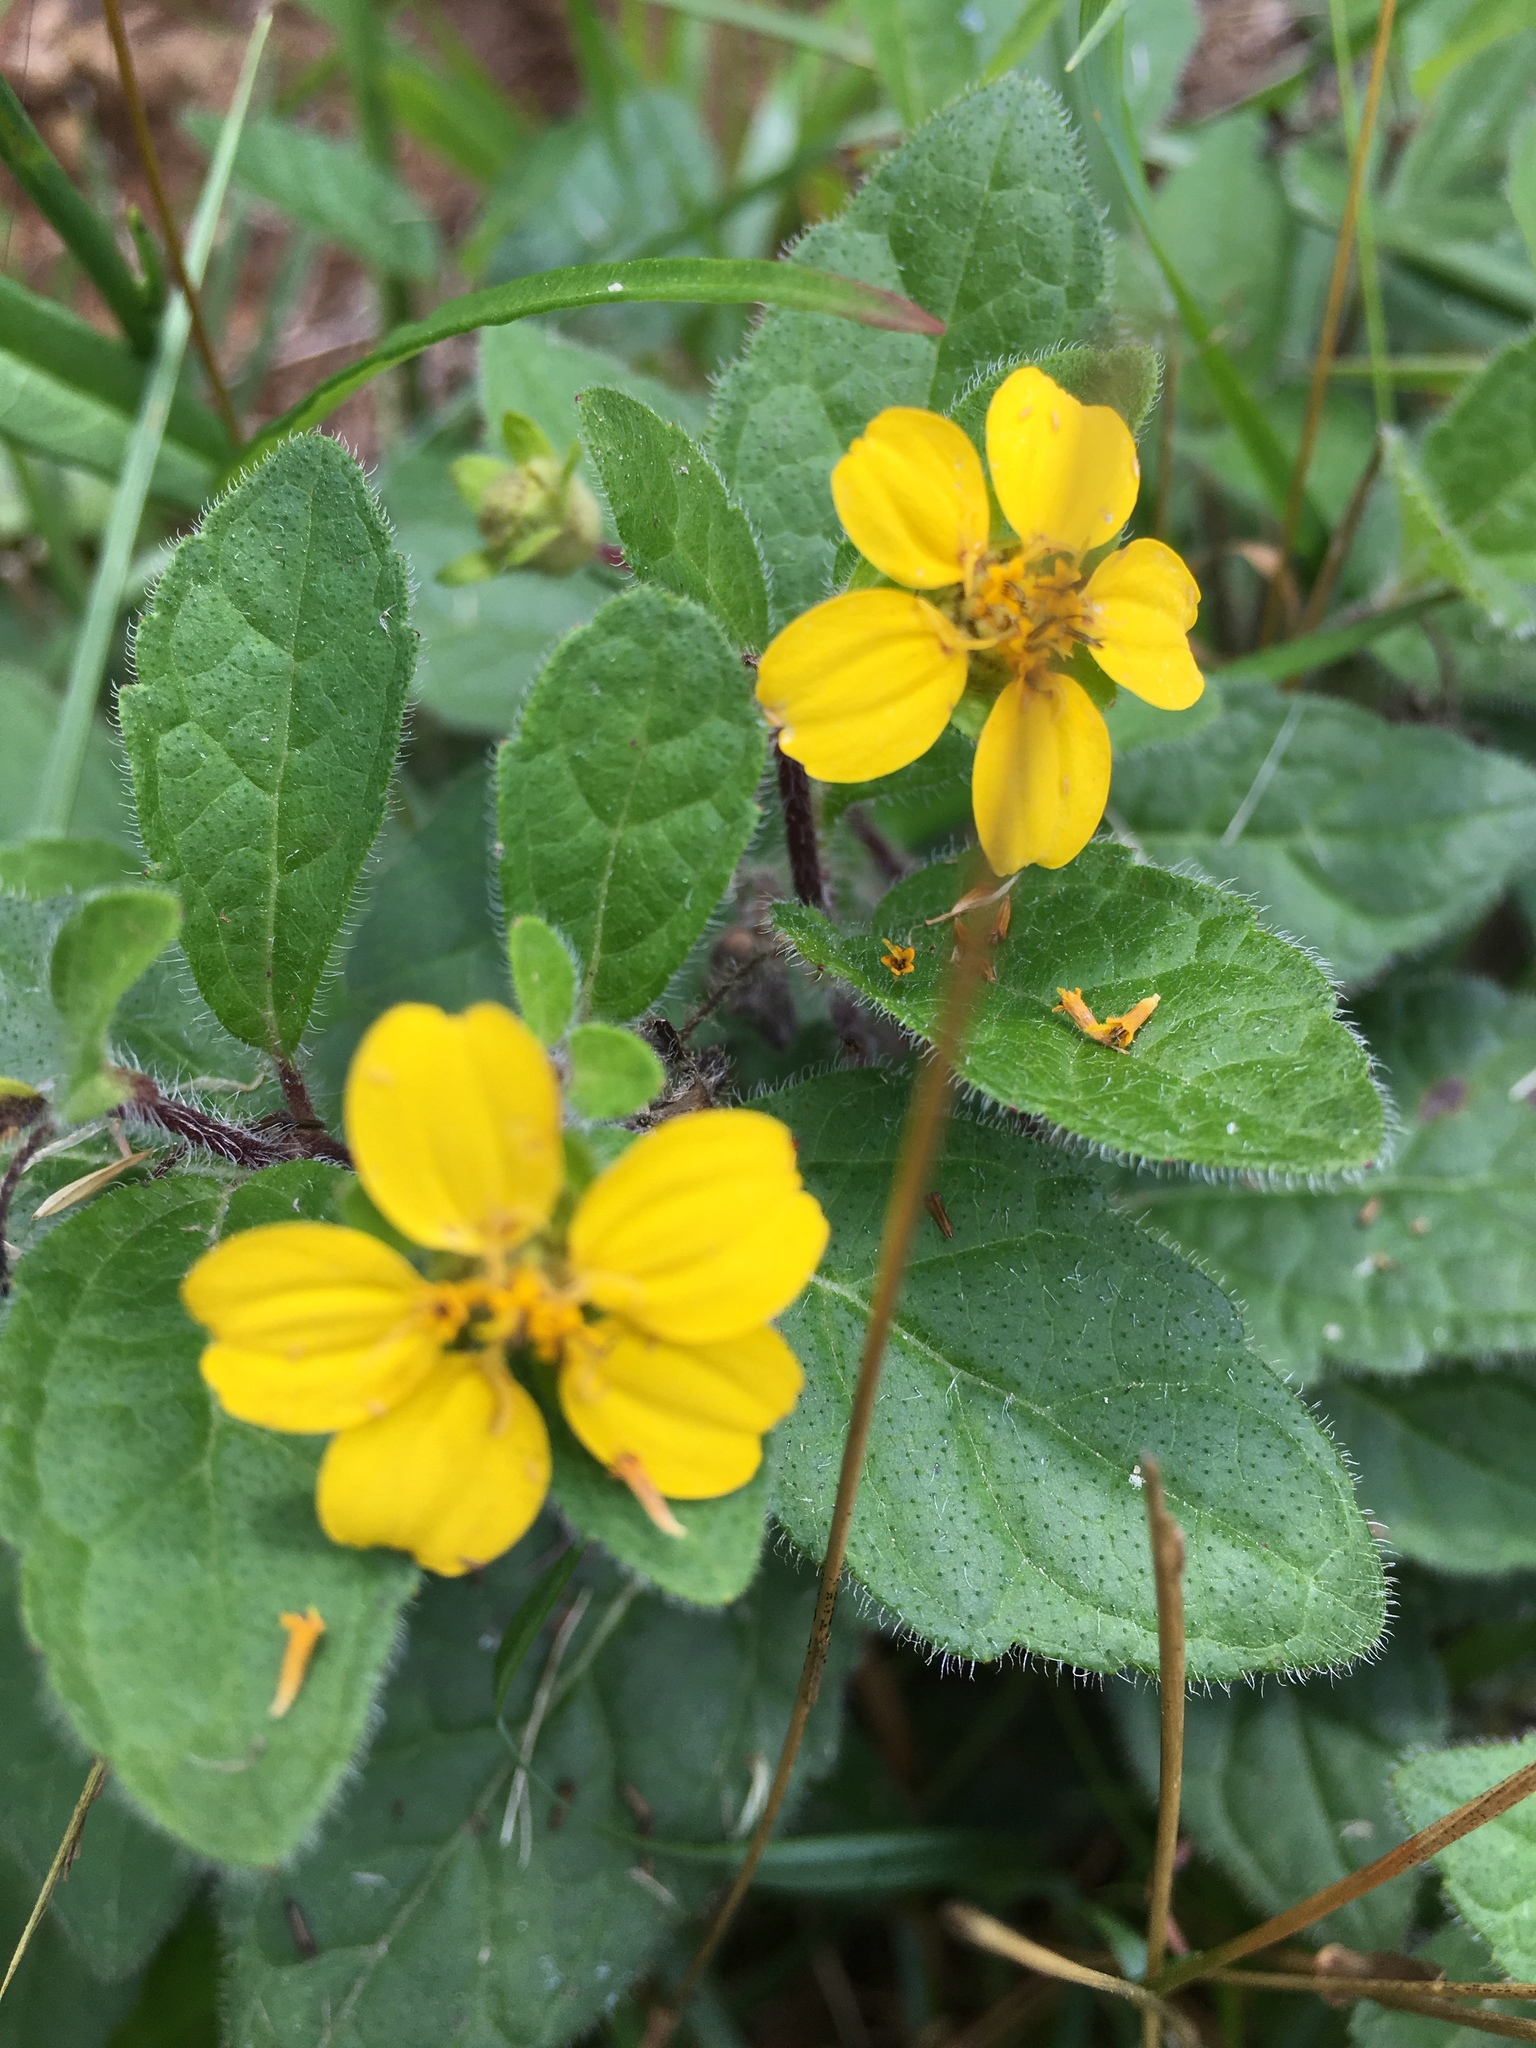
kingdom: Plantae
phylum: Tracheophyta
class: Magnoliopsida
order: Asterales
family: Asteraceae
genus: Chrysogonum
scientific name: Chrysogonum virginianum
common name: Golden-knee
